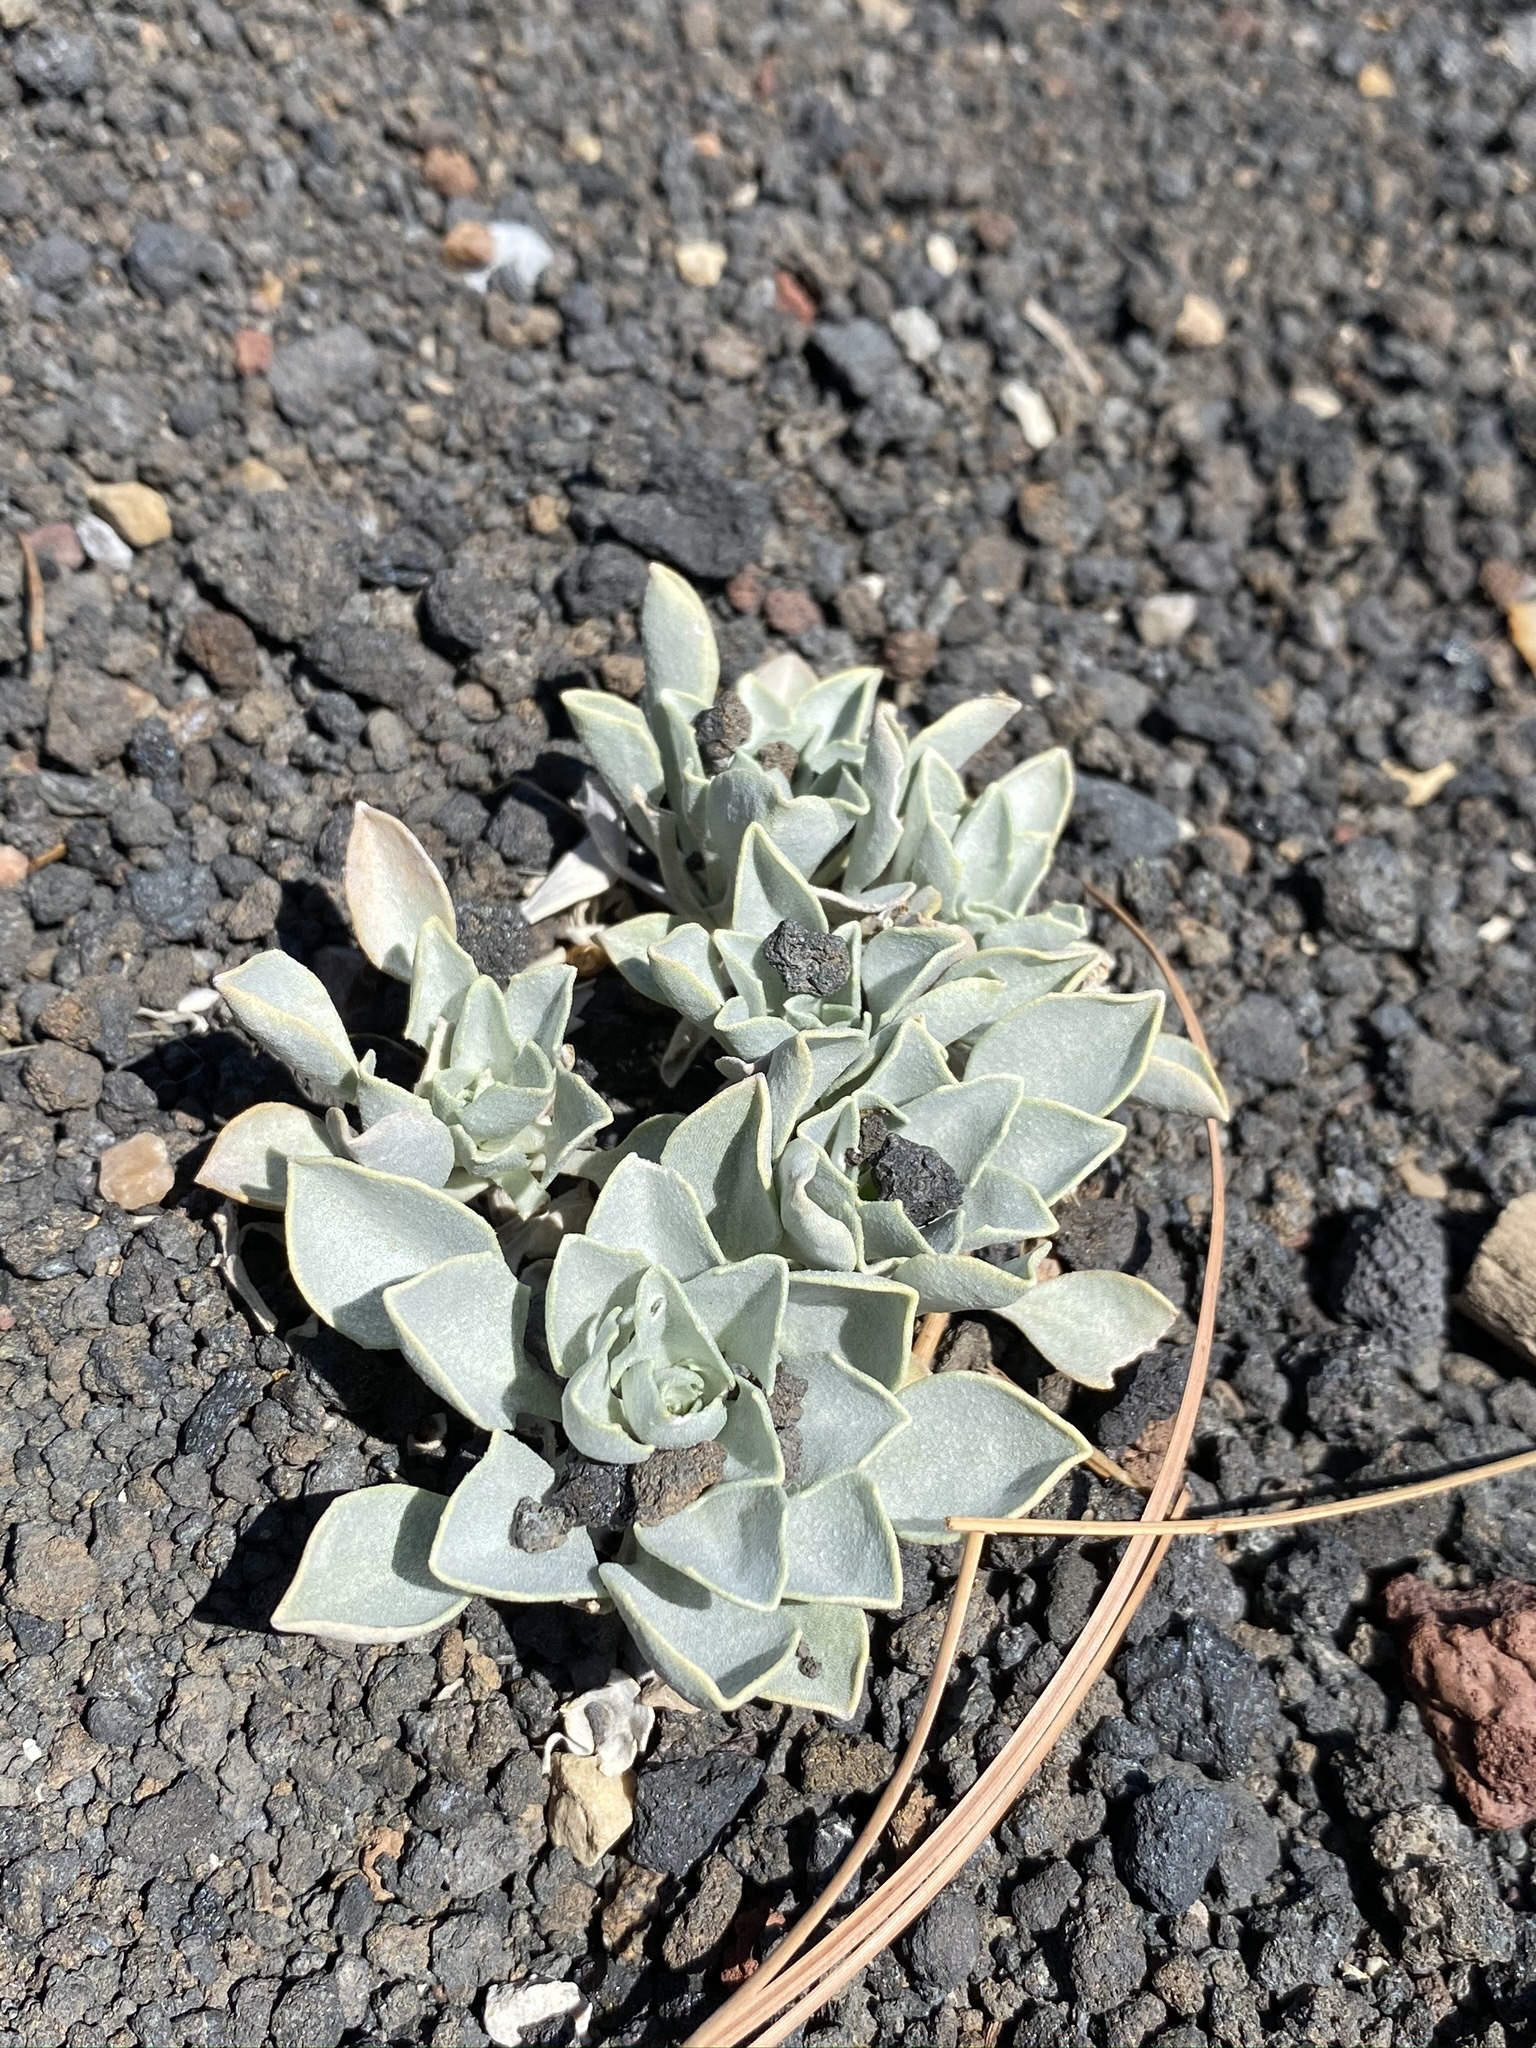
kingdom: Plantae
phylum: Tracheophyta
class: Magnoliopsida
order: Brassicales
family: Brassicaceae
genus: Physaria
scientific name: Physaria newberryi
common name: Newberry twinpod
